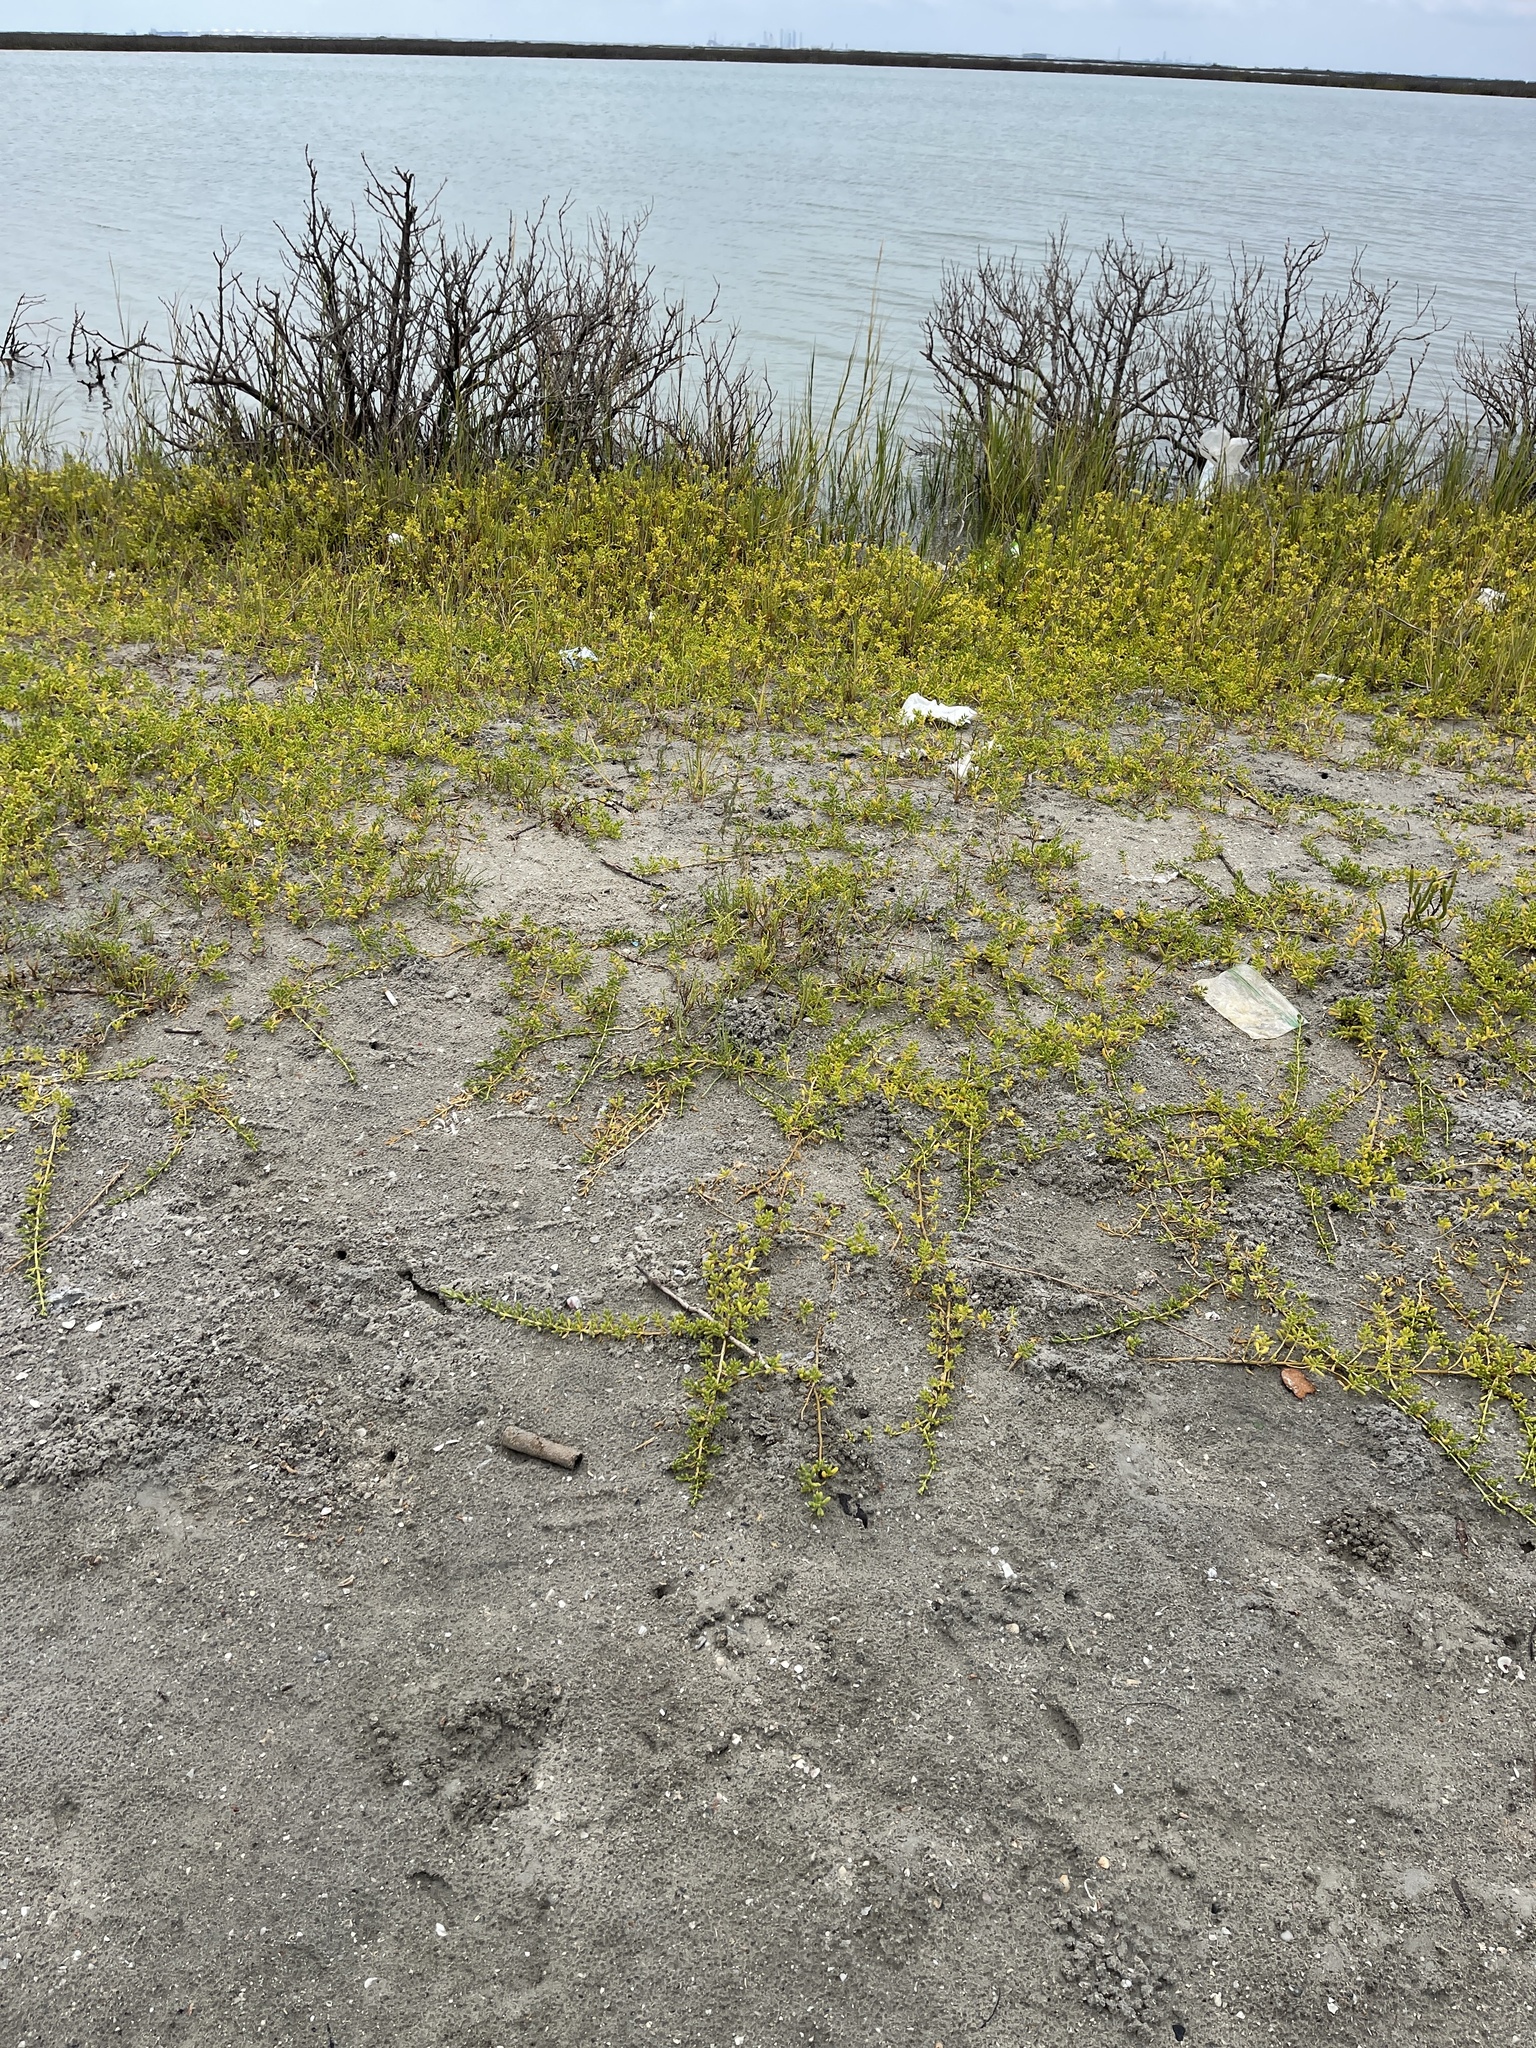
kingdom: Plantae
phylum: Tracheophyta
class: Magnoliopsida
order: Brassicales
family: Bataceae
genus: Batis
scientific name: Batis maritima
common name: Turtleweed
